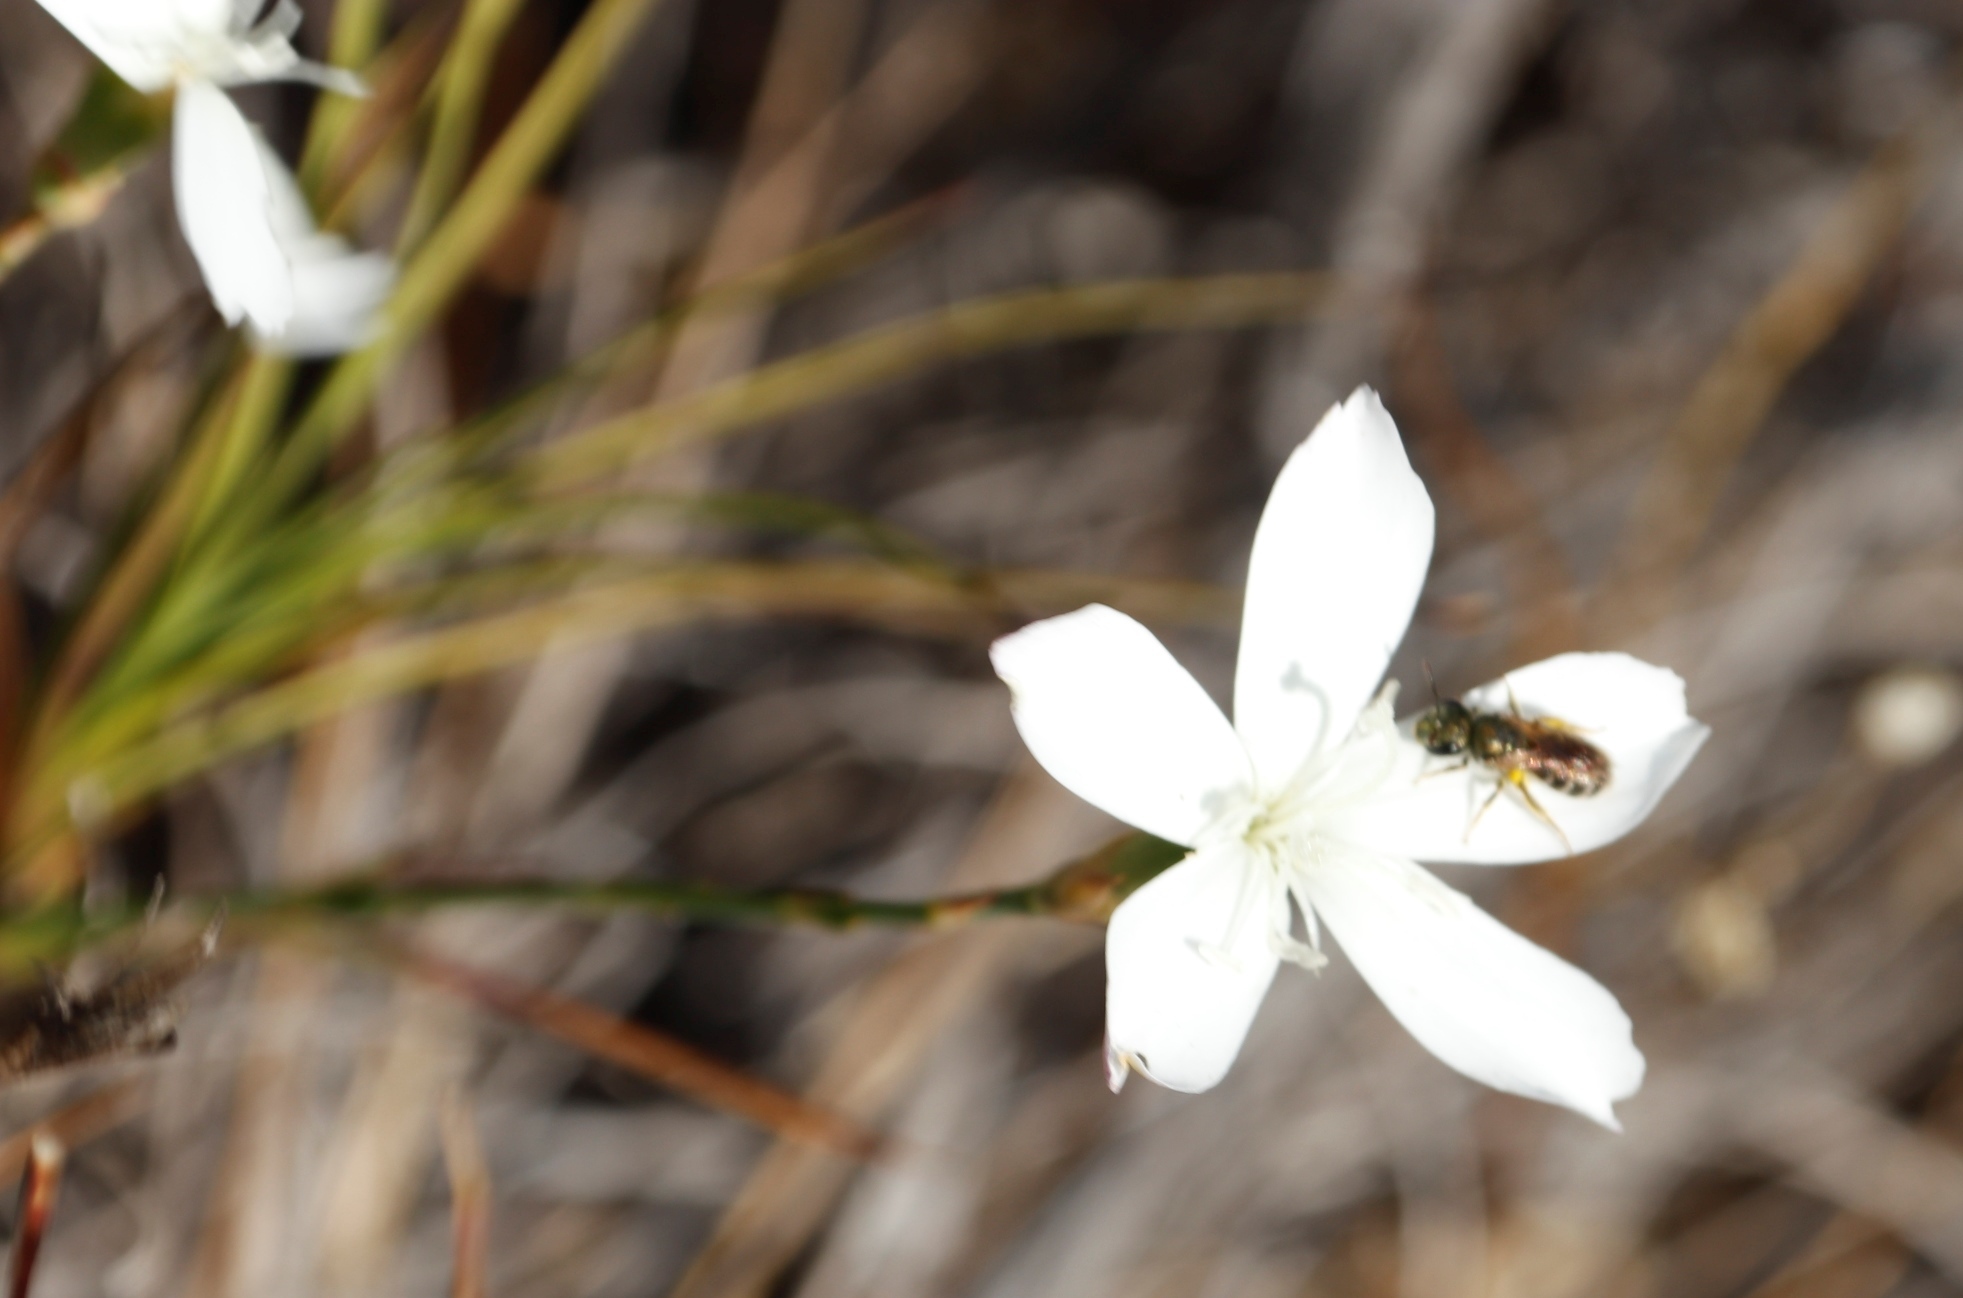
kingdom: Plantae
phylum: Tracheophyta
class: Magnoliopsida
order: Caryophyllales
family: Caryophyllaceae
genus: Dianthus
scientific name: Dianthus albens
